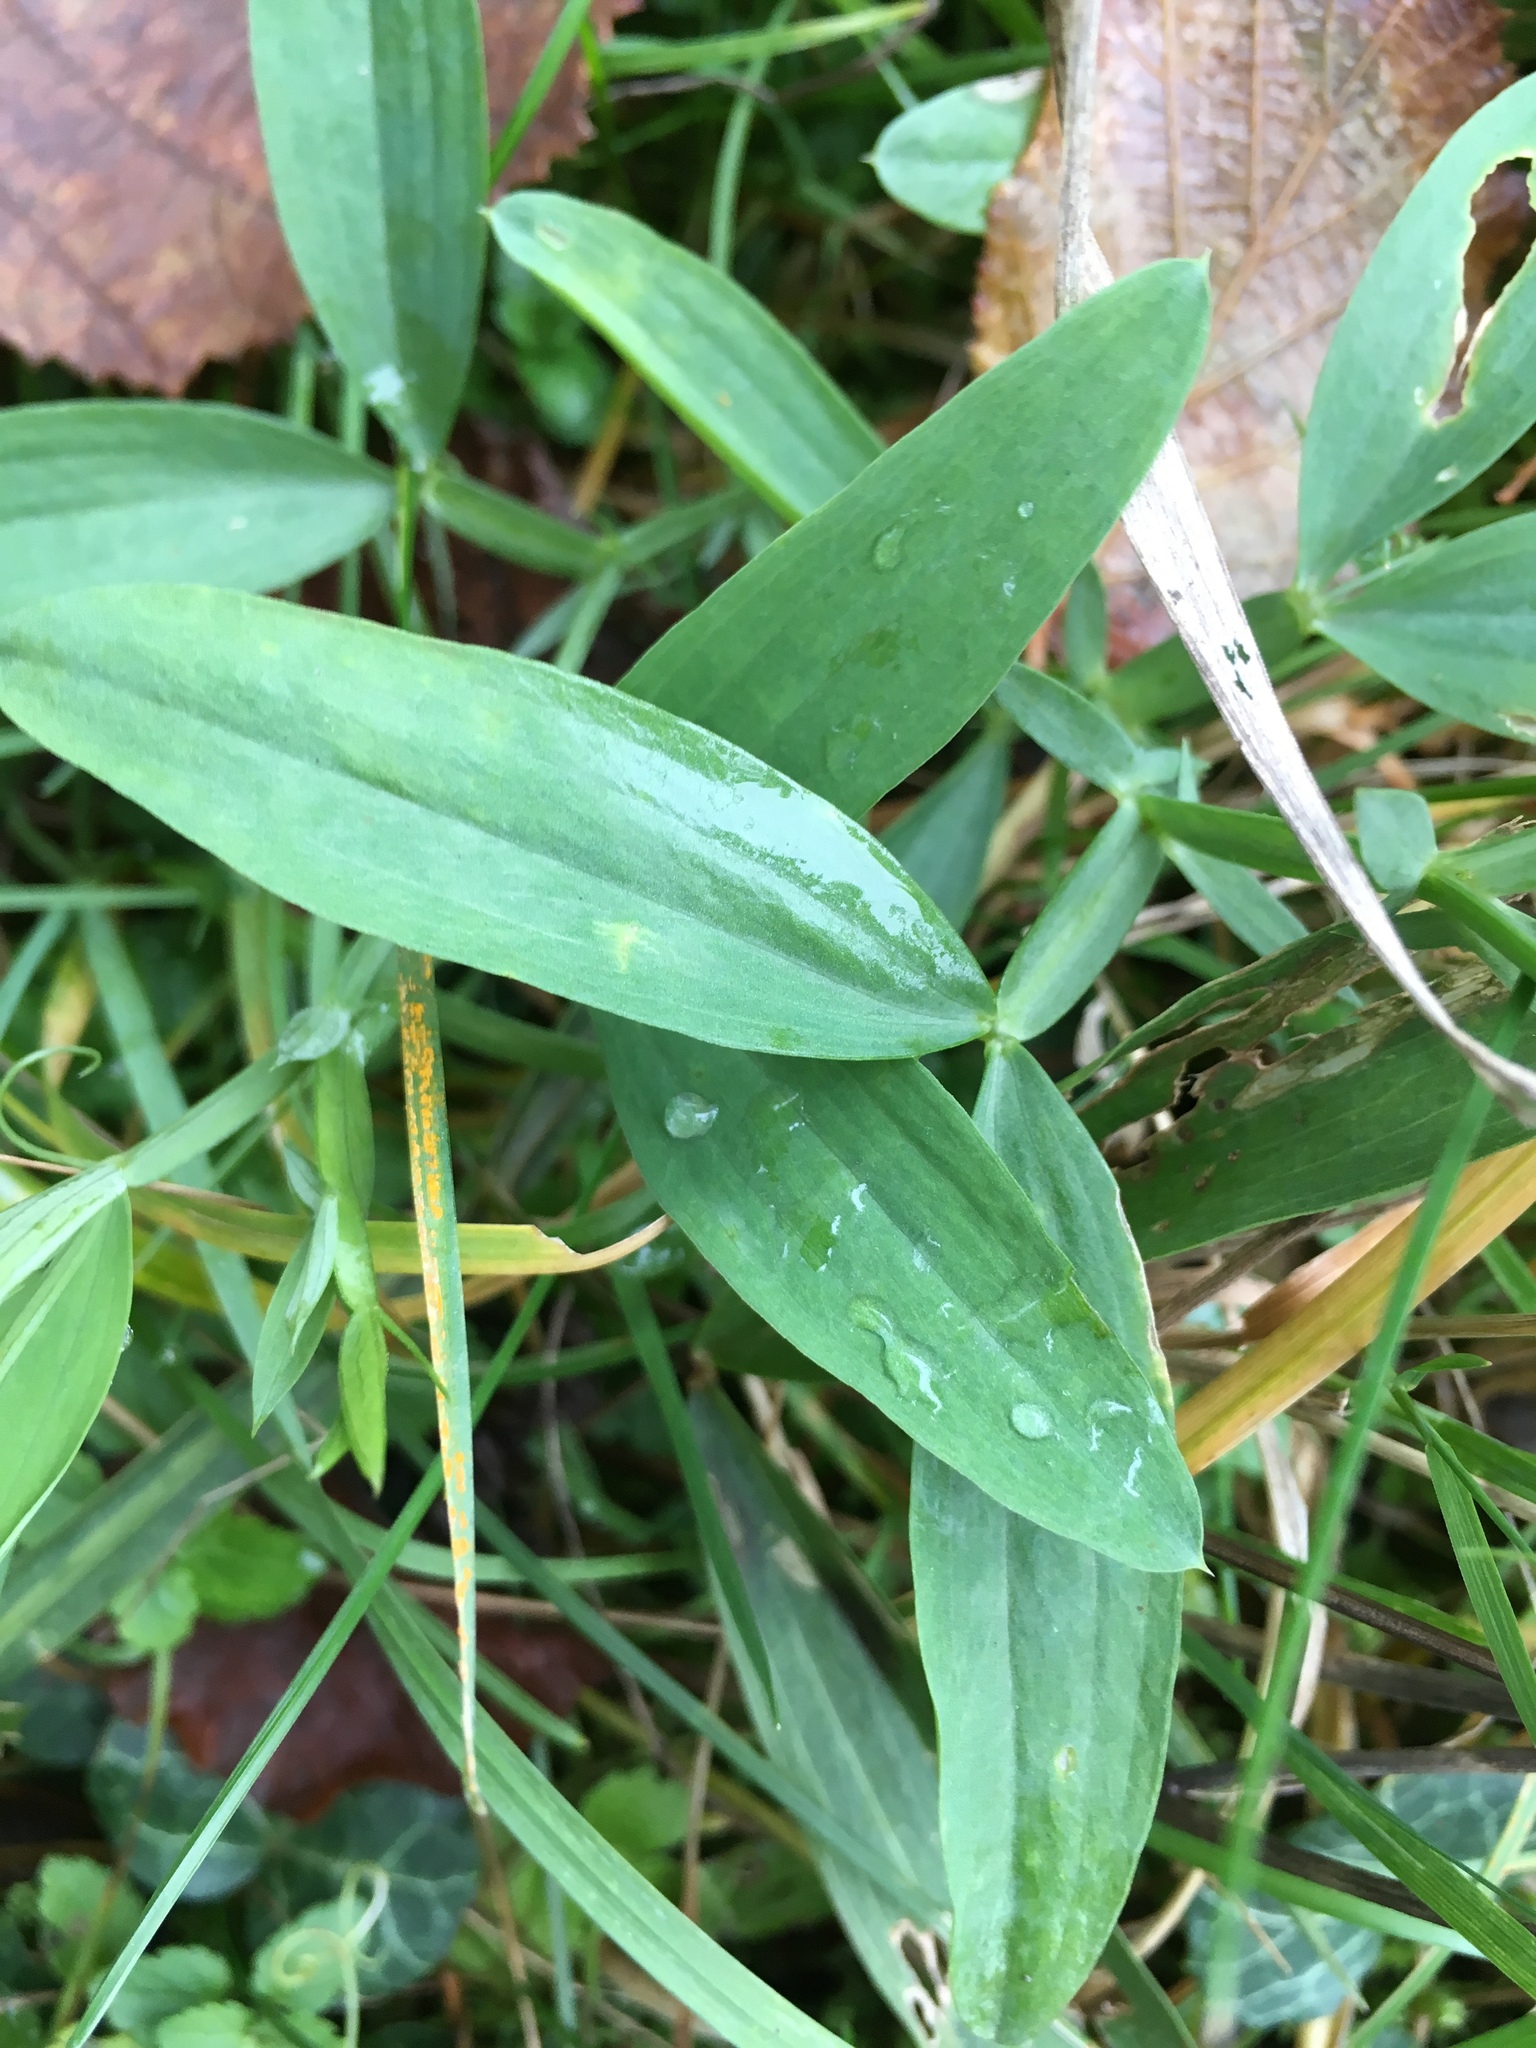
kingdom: Plantae
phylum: Tracheophyta
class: Magnoliopsida
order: Fabales
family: Fabaceae
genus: Lathyrus
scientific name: Lathyrus latifolius
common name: Perennial pea
